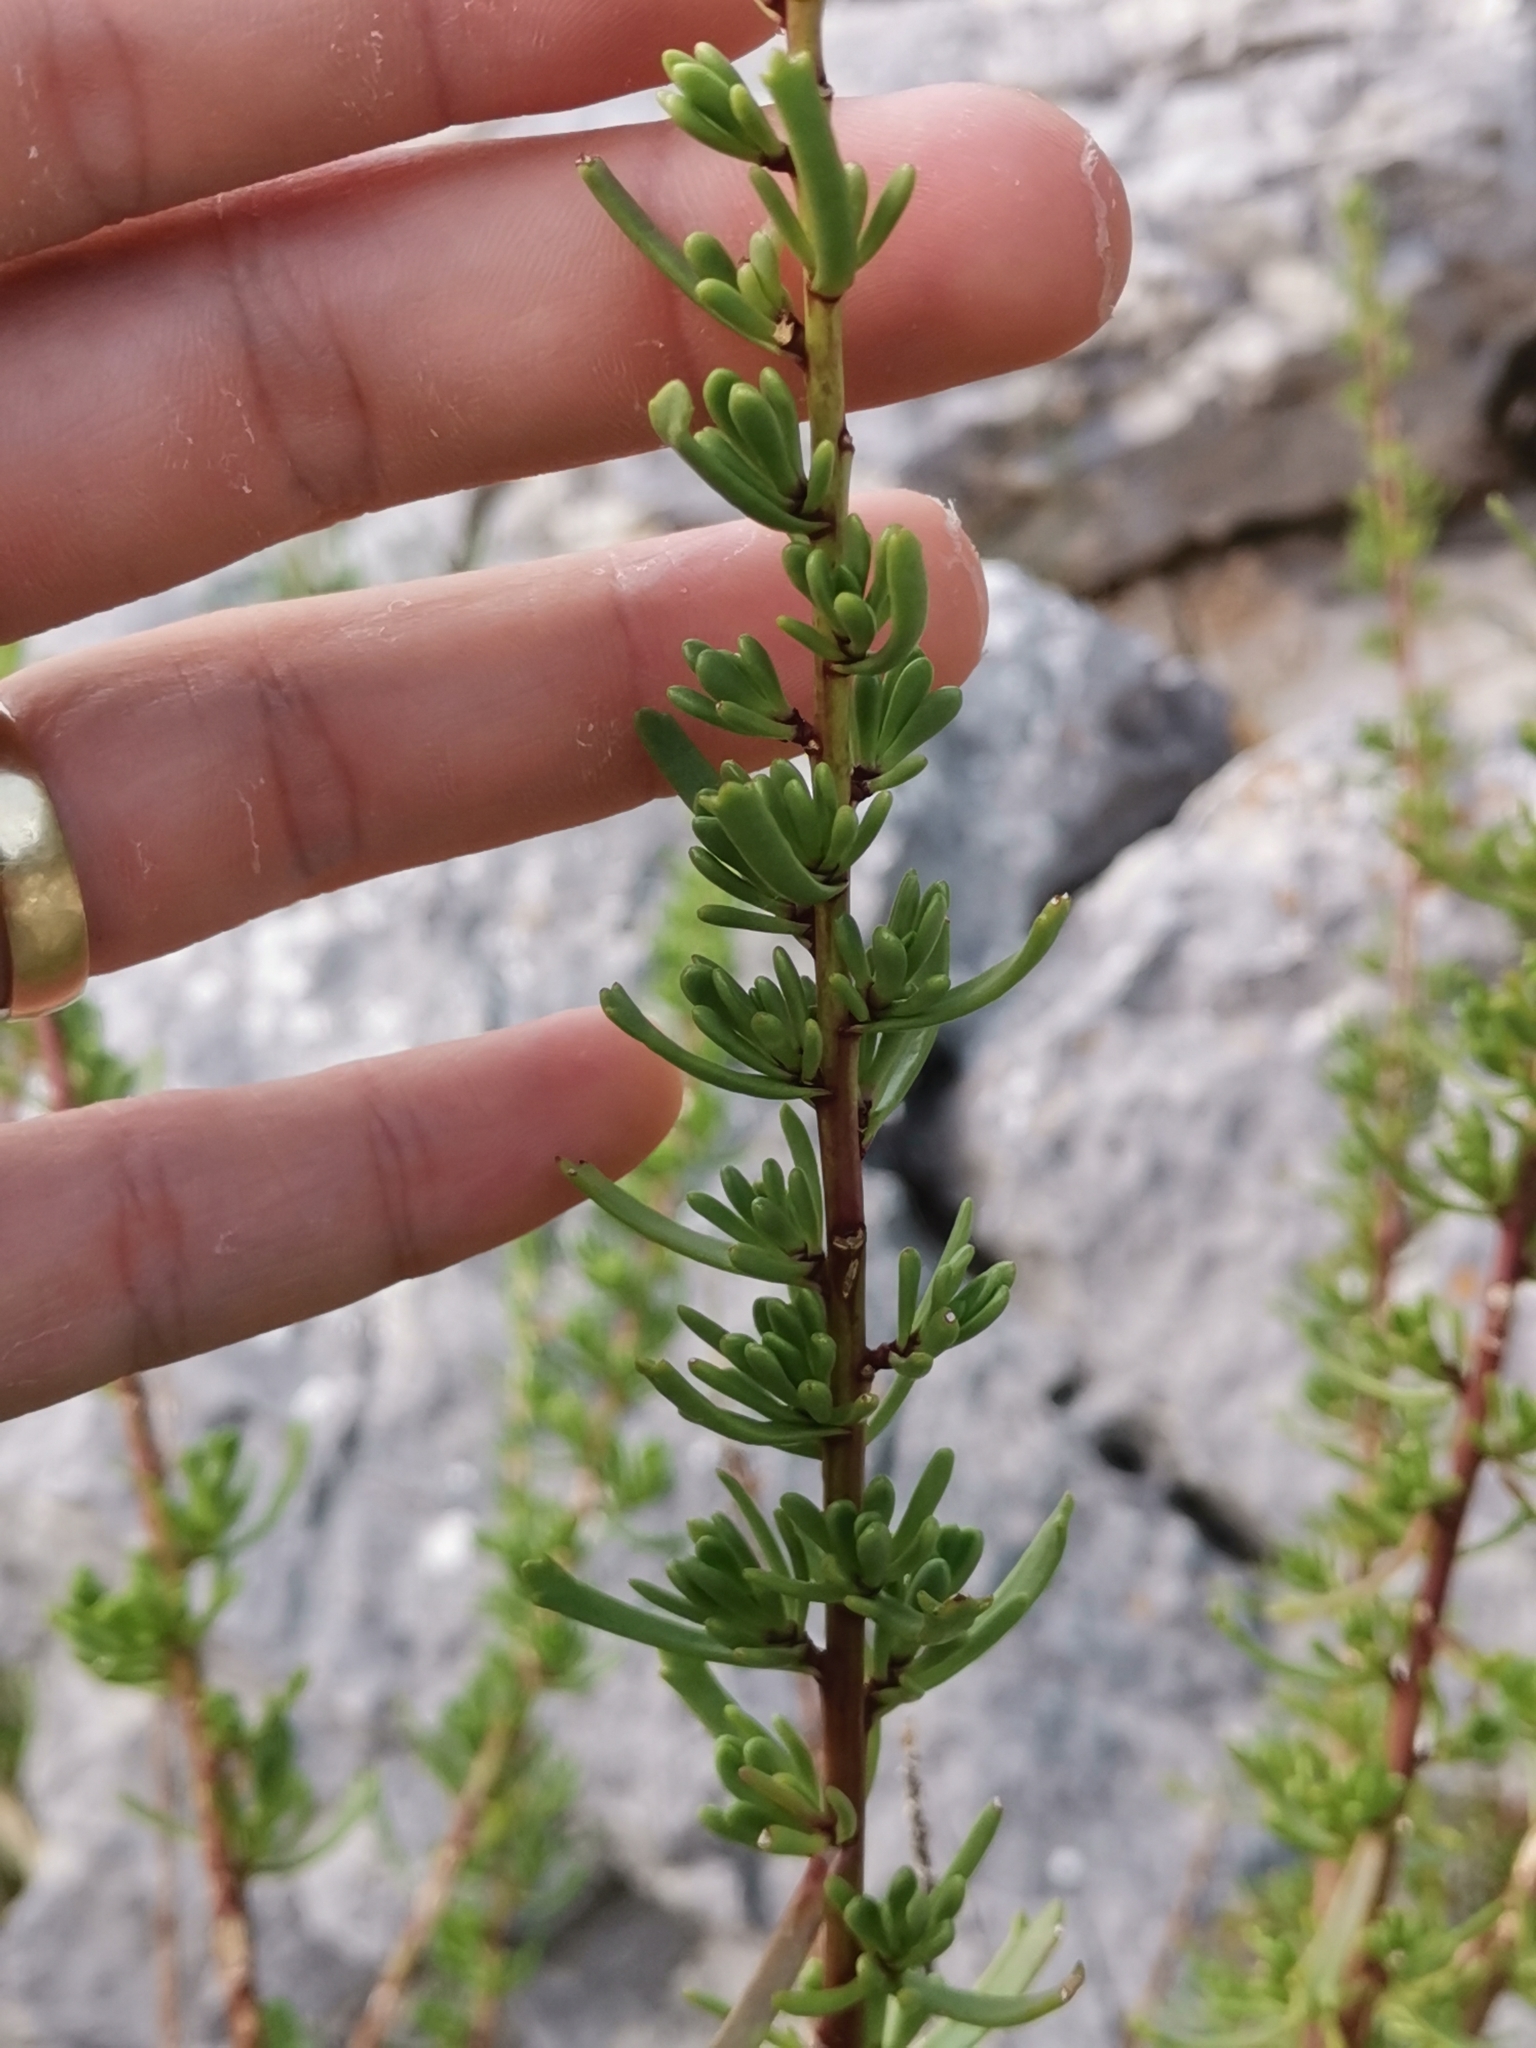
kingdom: Plantae
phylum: Tracheophyta
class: Magnoliopsida
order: Asterales
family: Asteraceae
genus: Limbarda
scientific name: Limbarda crithmoides
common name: Golden samphire
